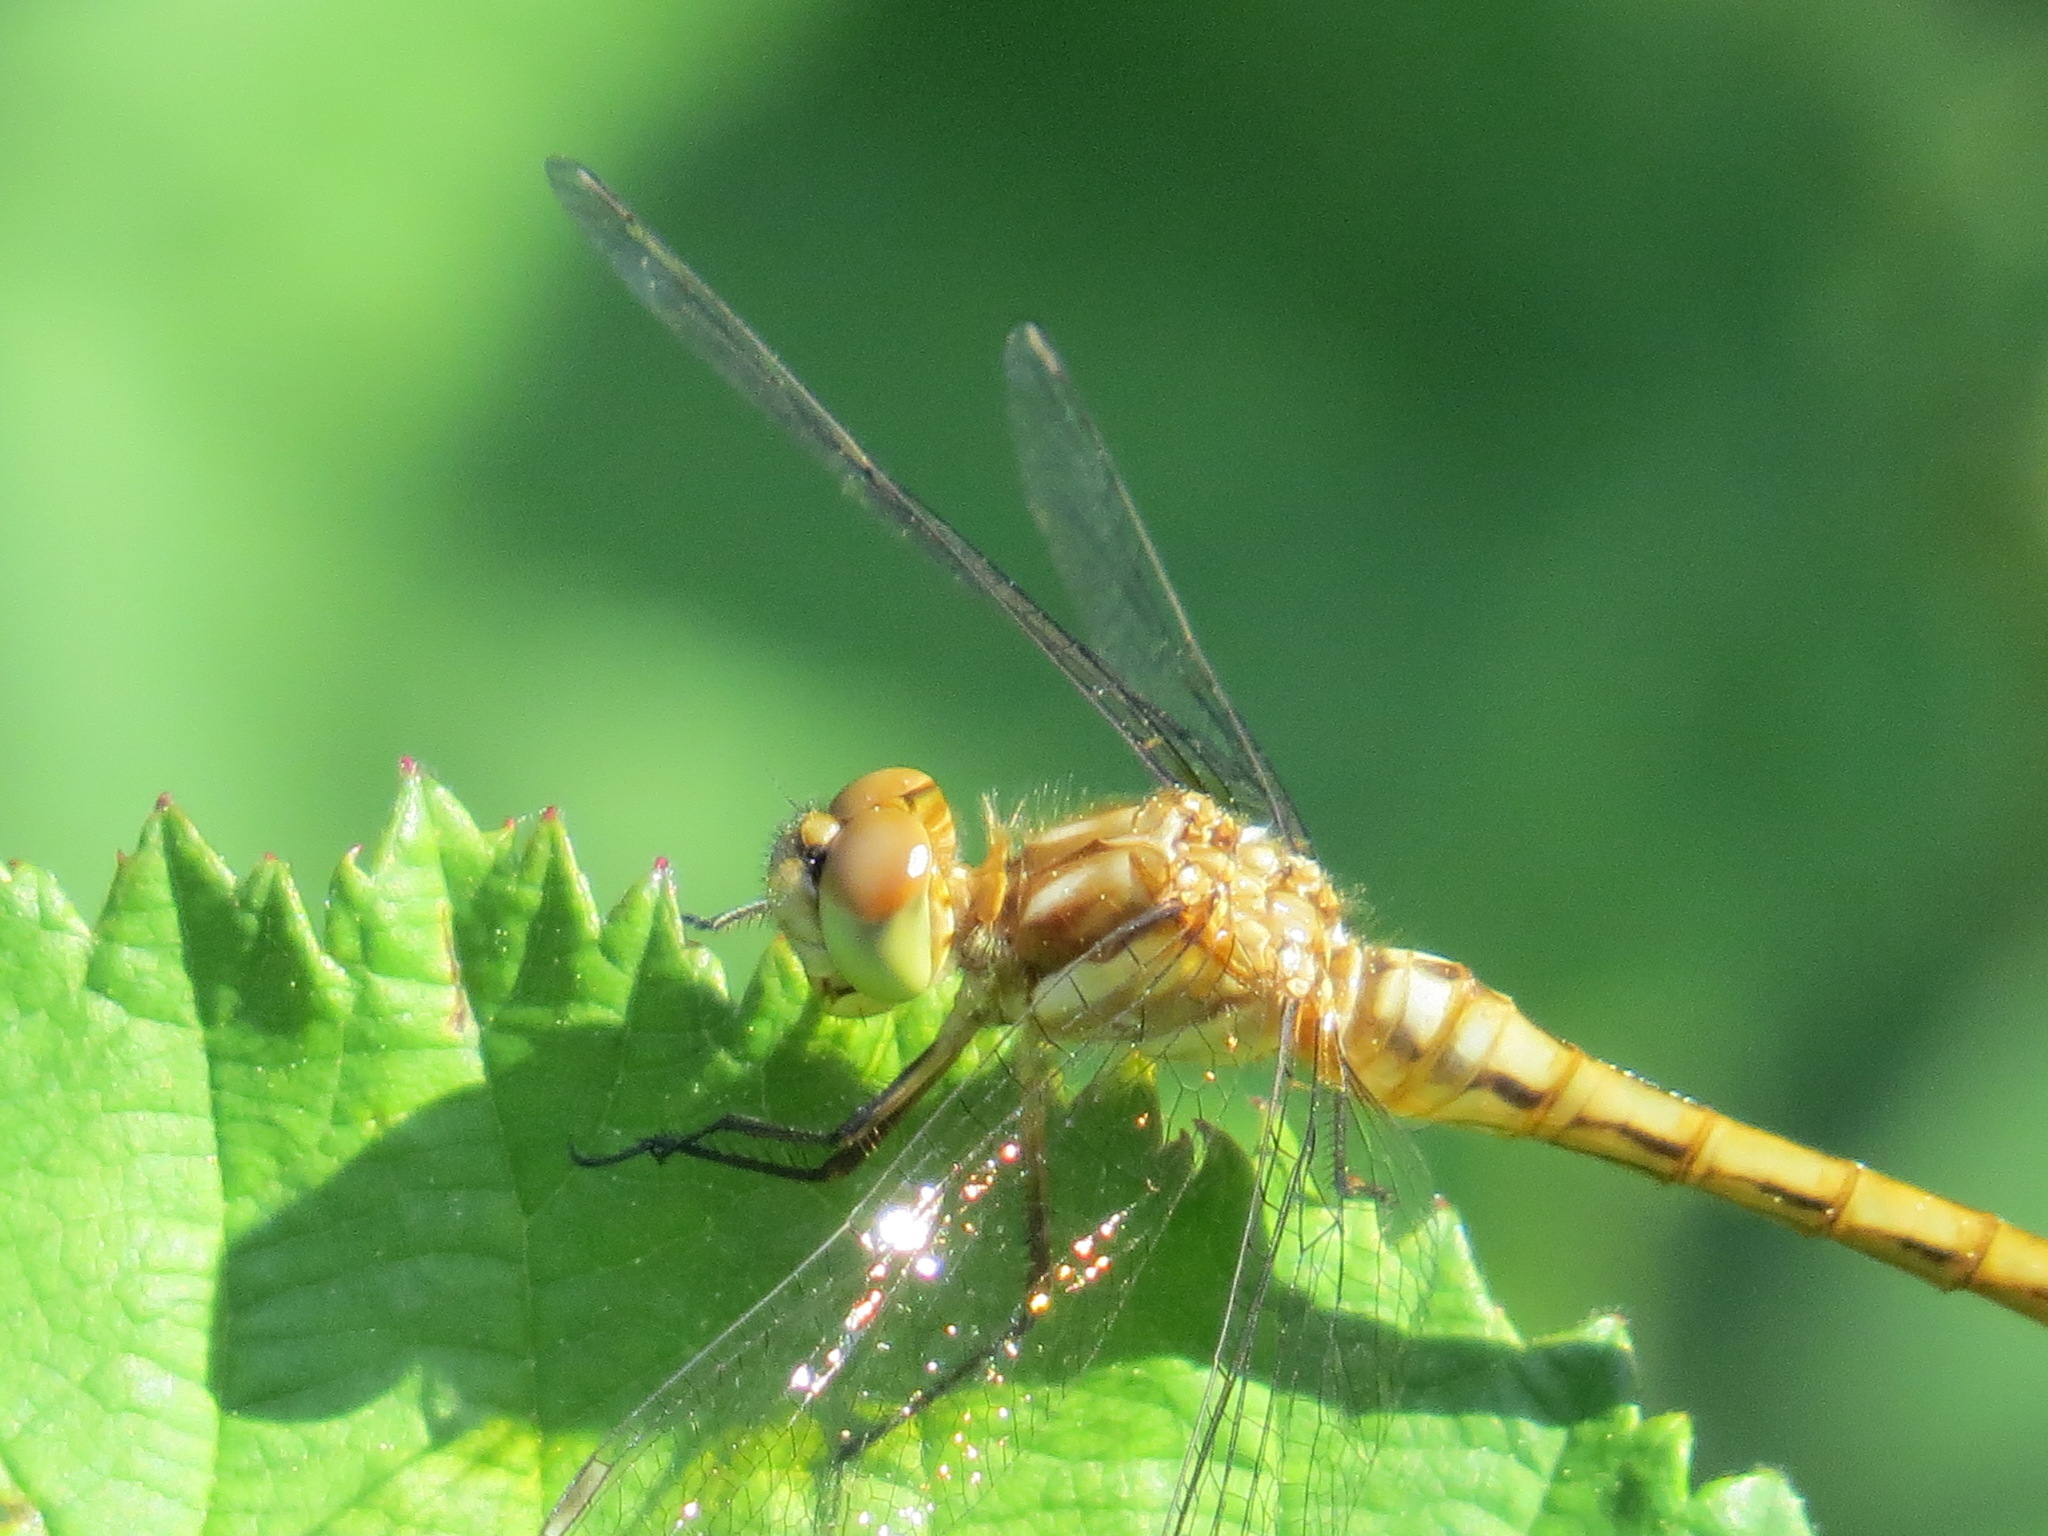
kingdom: Animalia
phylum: Arthropoda
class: Insecta
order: Odonata
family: Libellulidae
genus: Sympetrum
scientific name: Sympetrum pallipes
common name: Striped meadowhawk
